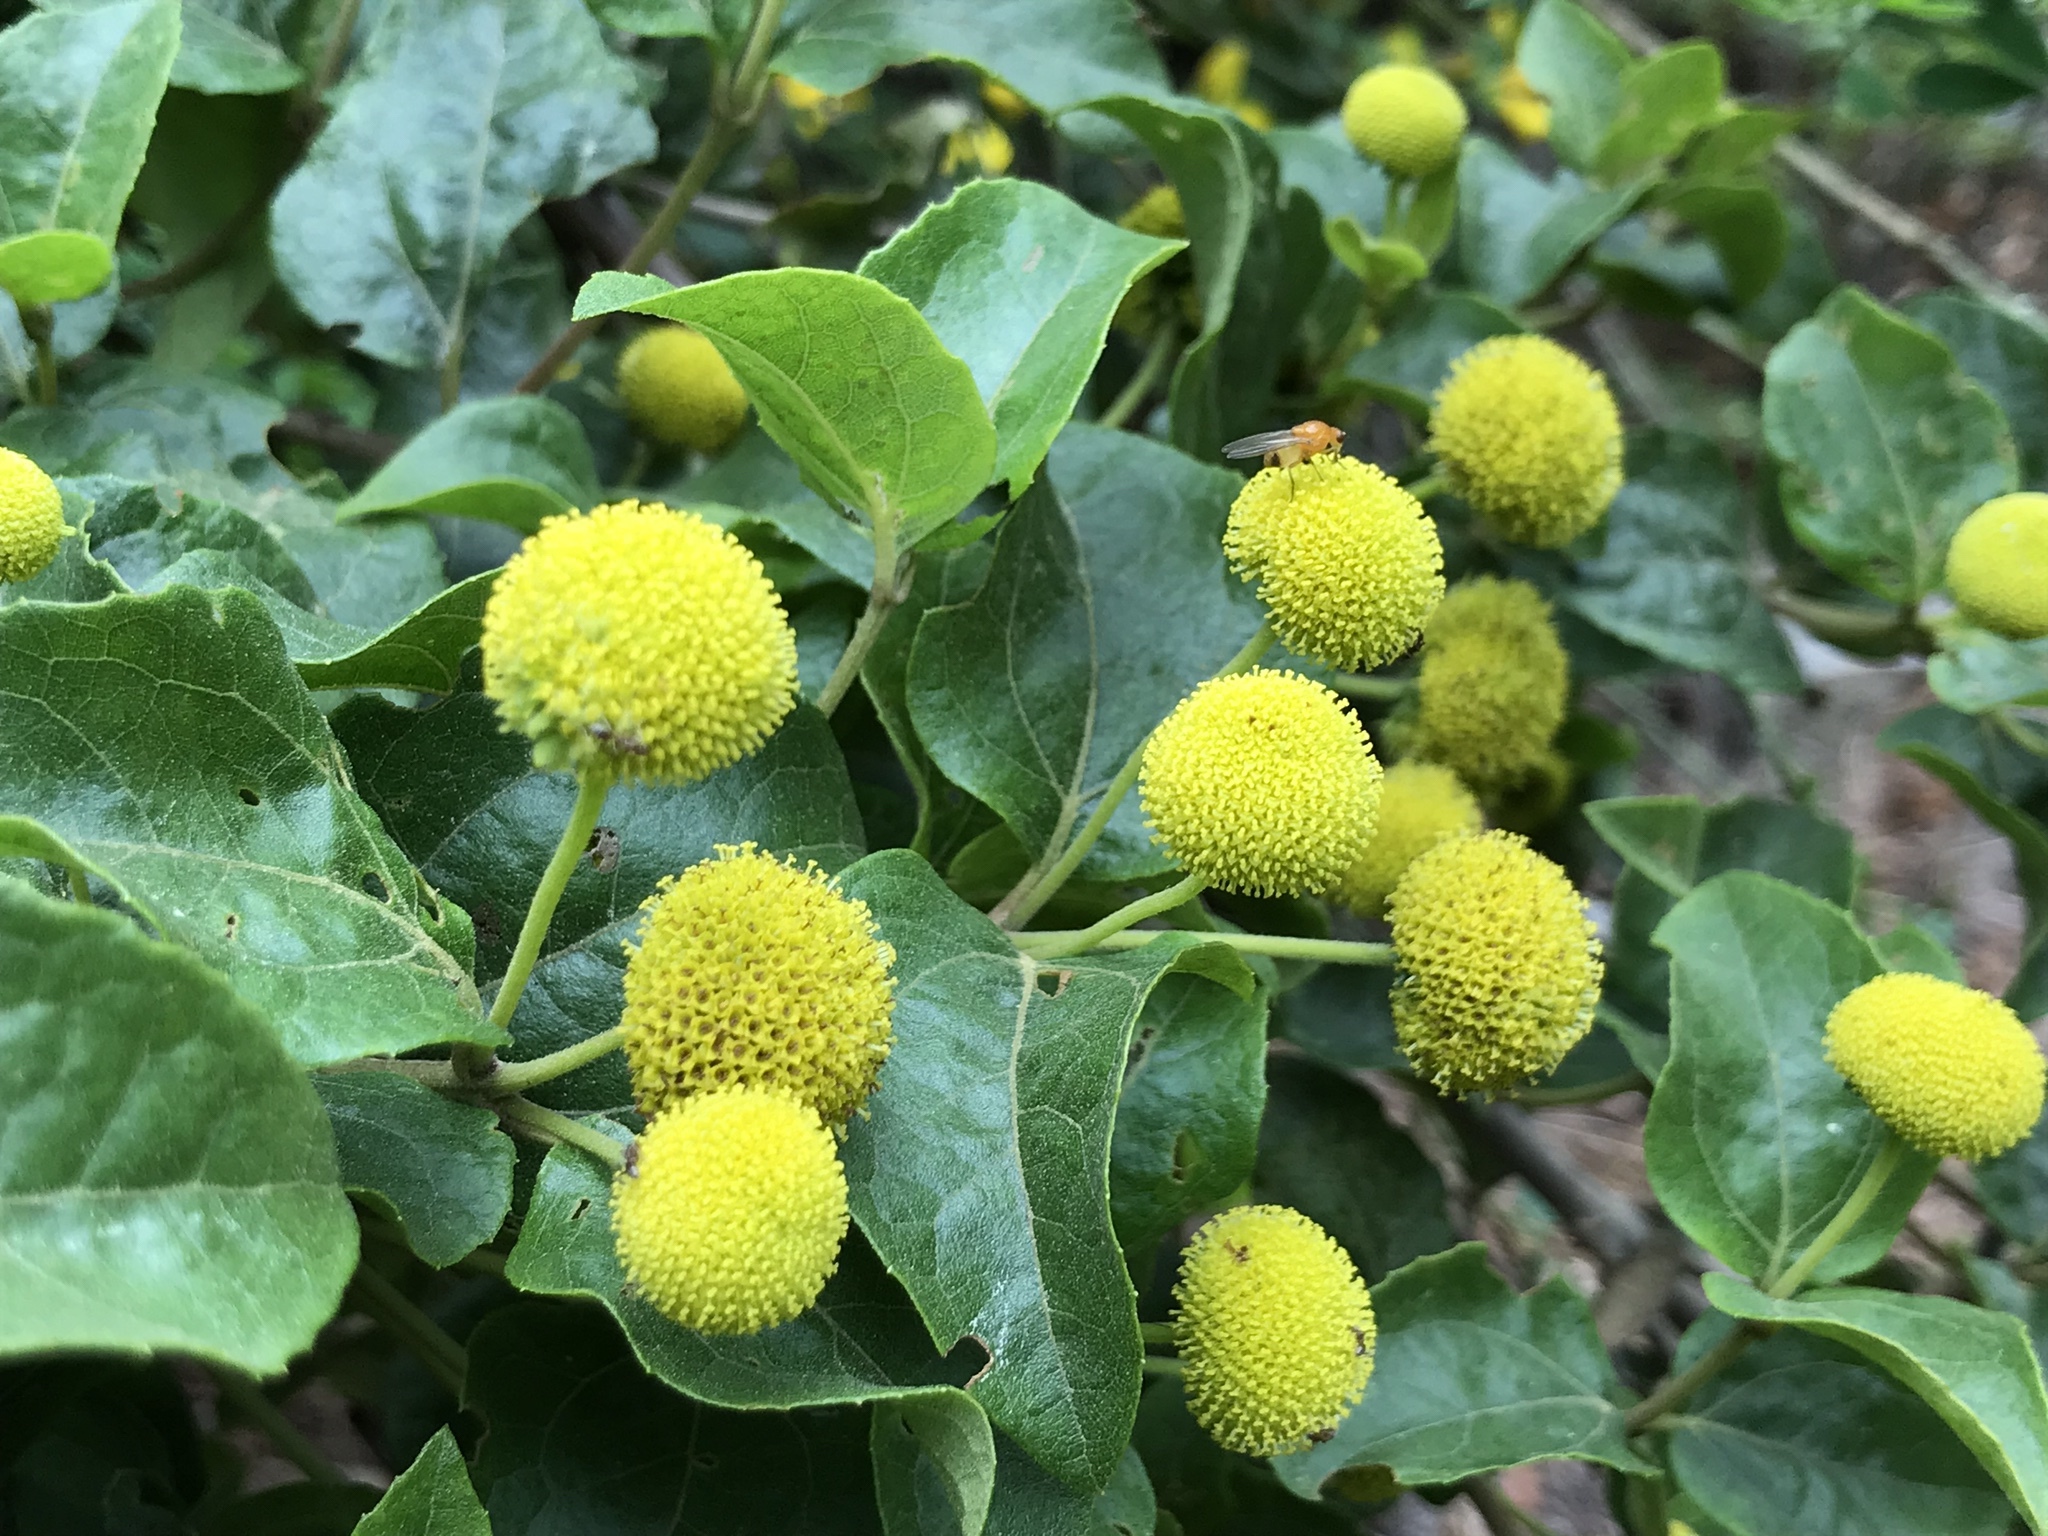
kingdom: Plantae
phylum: Tracheophyta
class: Magnoliopsida
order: Asterales
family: Asteraceae
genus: Podanthus
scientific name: Podanthus ovatifolius
